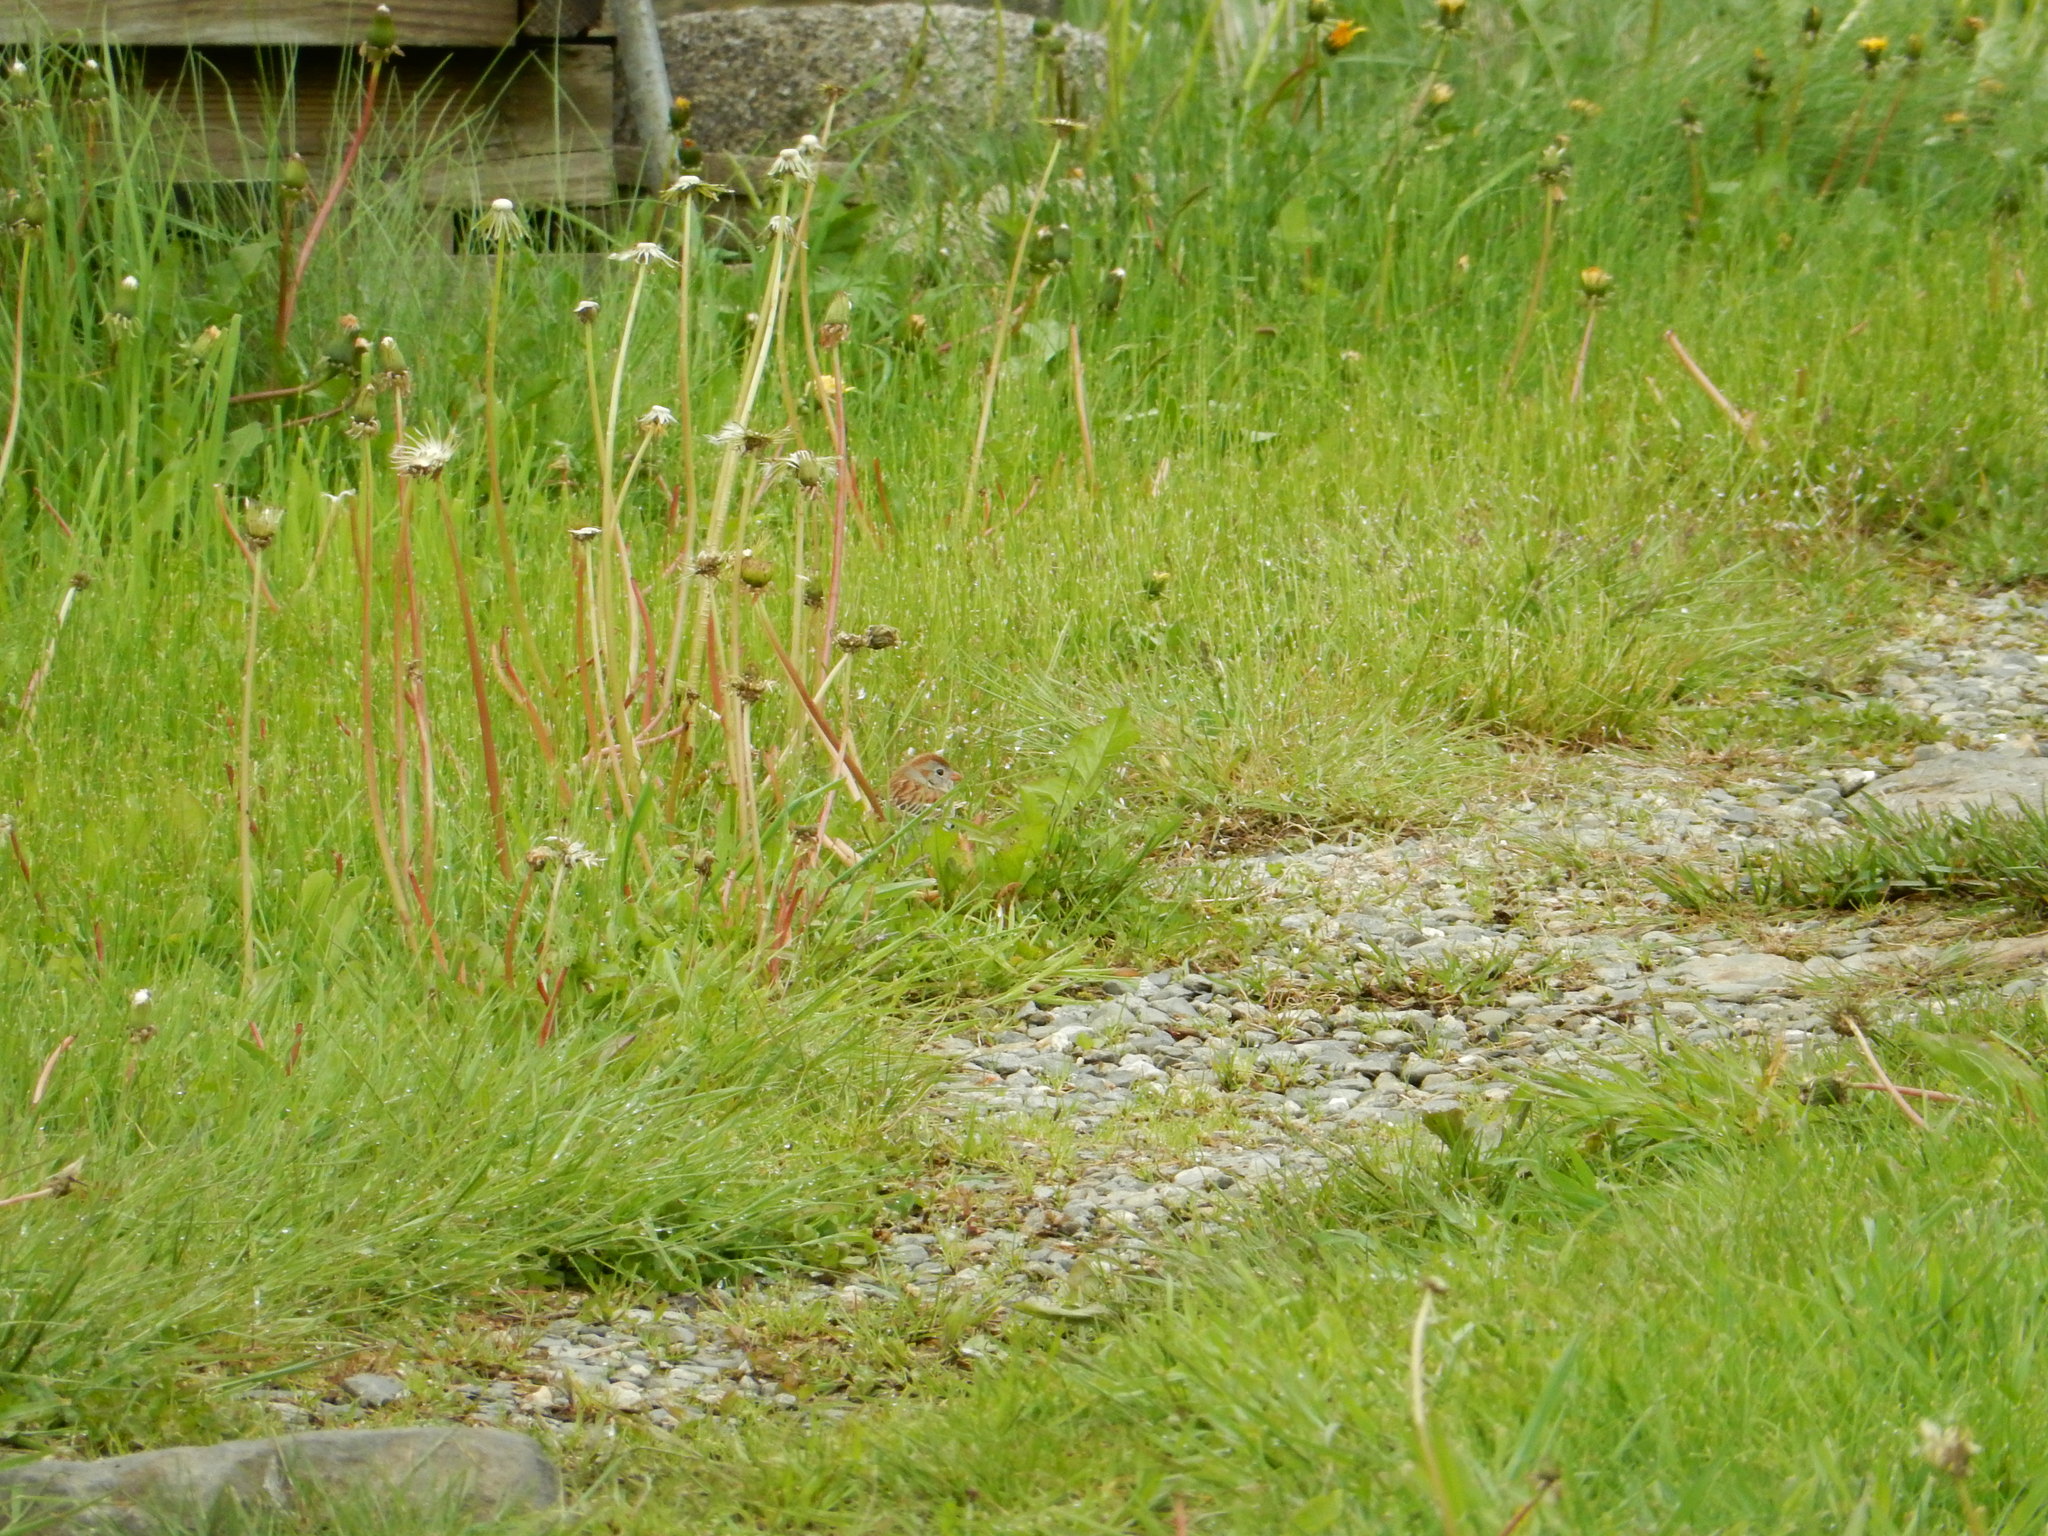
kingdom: Animalia
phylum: Chordata
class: Aves
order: Passeriformes
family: Passerellidae
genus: Spizella
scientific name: Spizella pusilla
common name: Field sparrow
